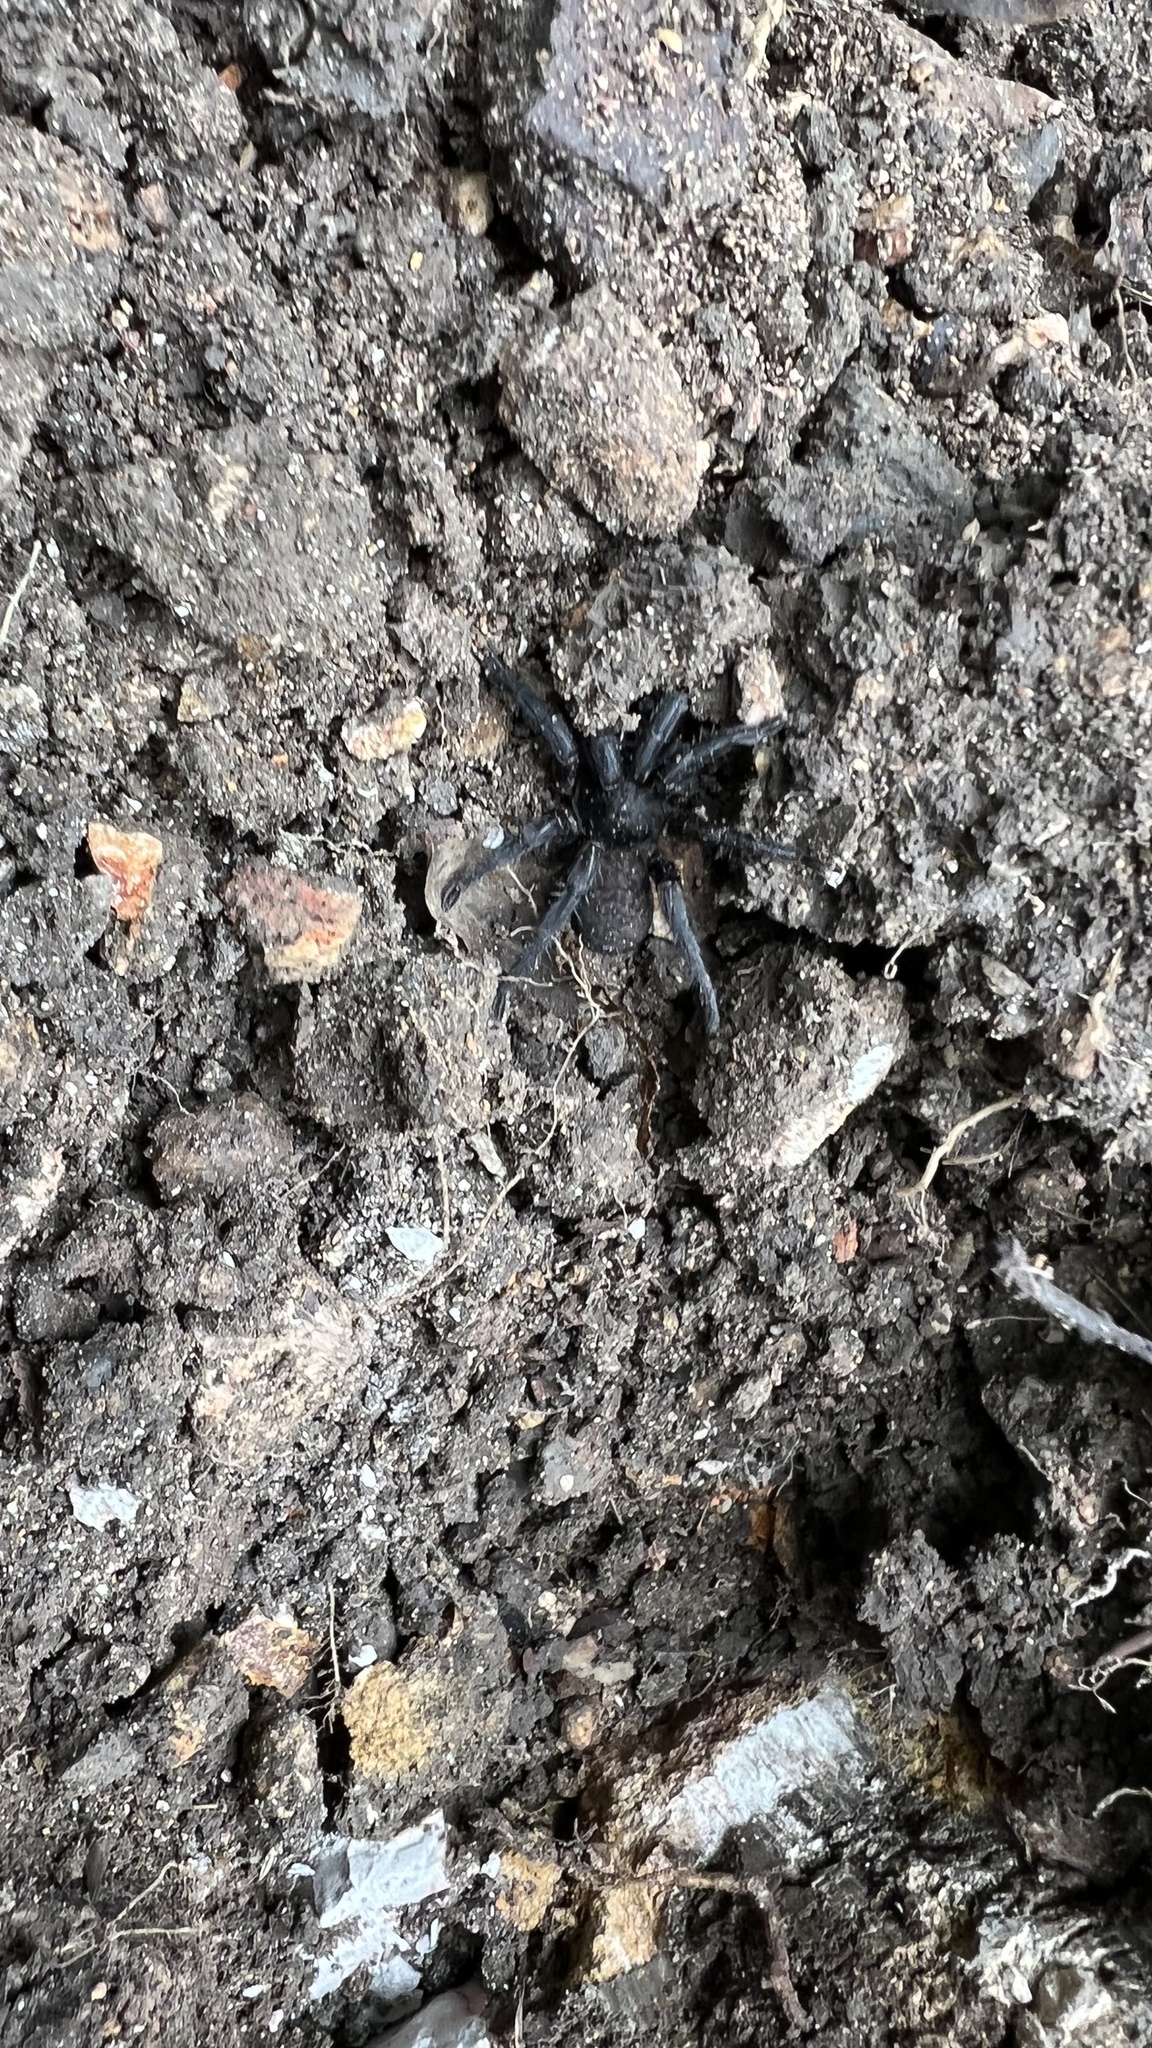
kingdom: Animalia
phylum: Arthropoda
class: Arachnida
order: Araneae
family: Barychelidae
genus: Seqocrypta
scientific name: Seqocrypta jakara
